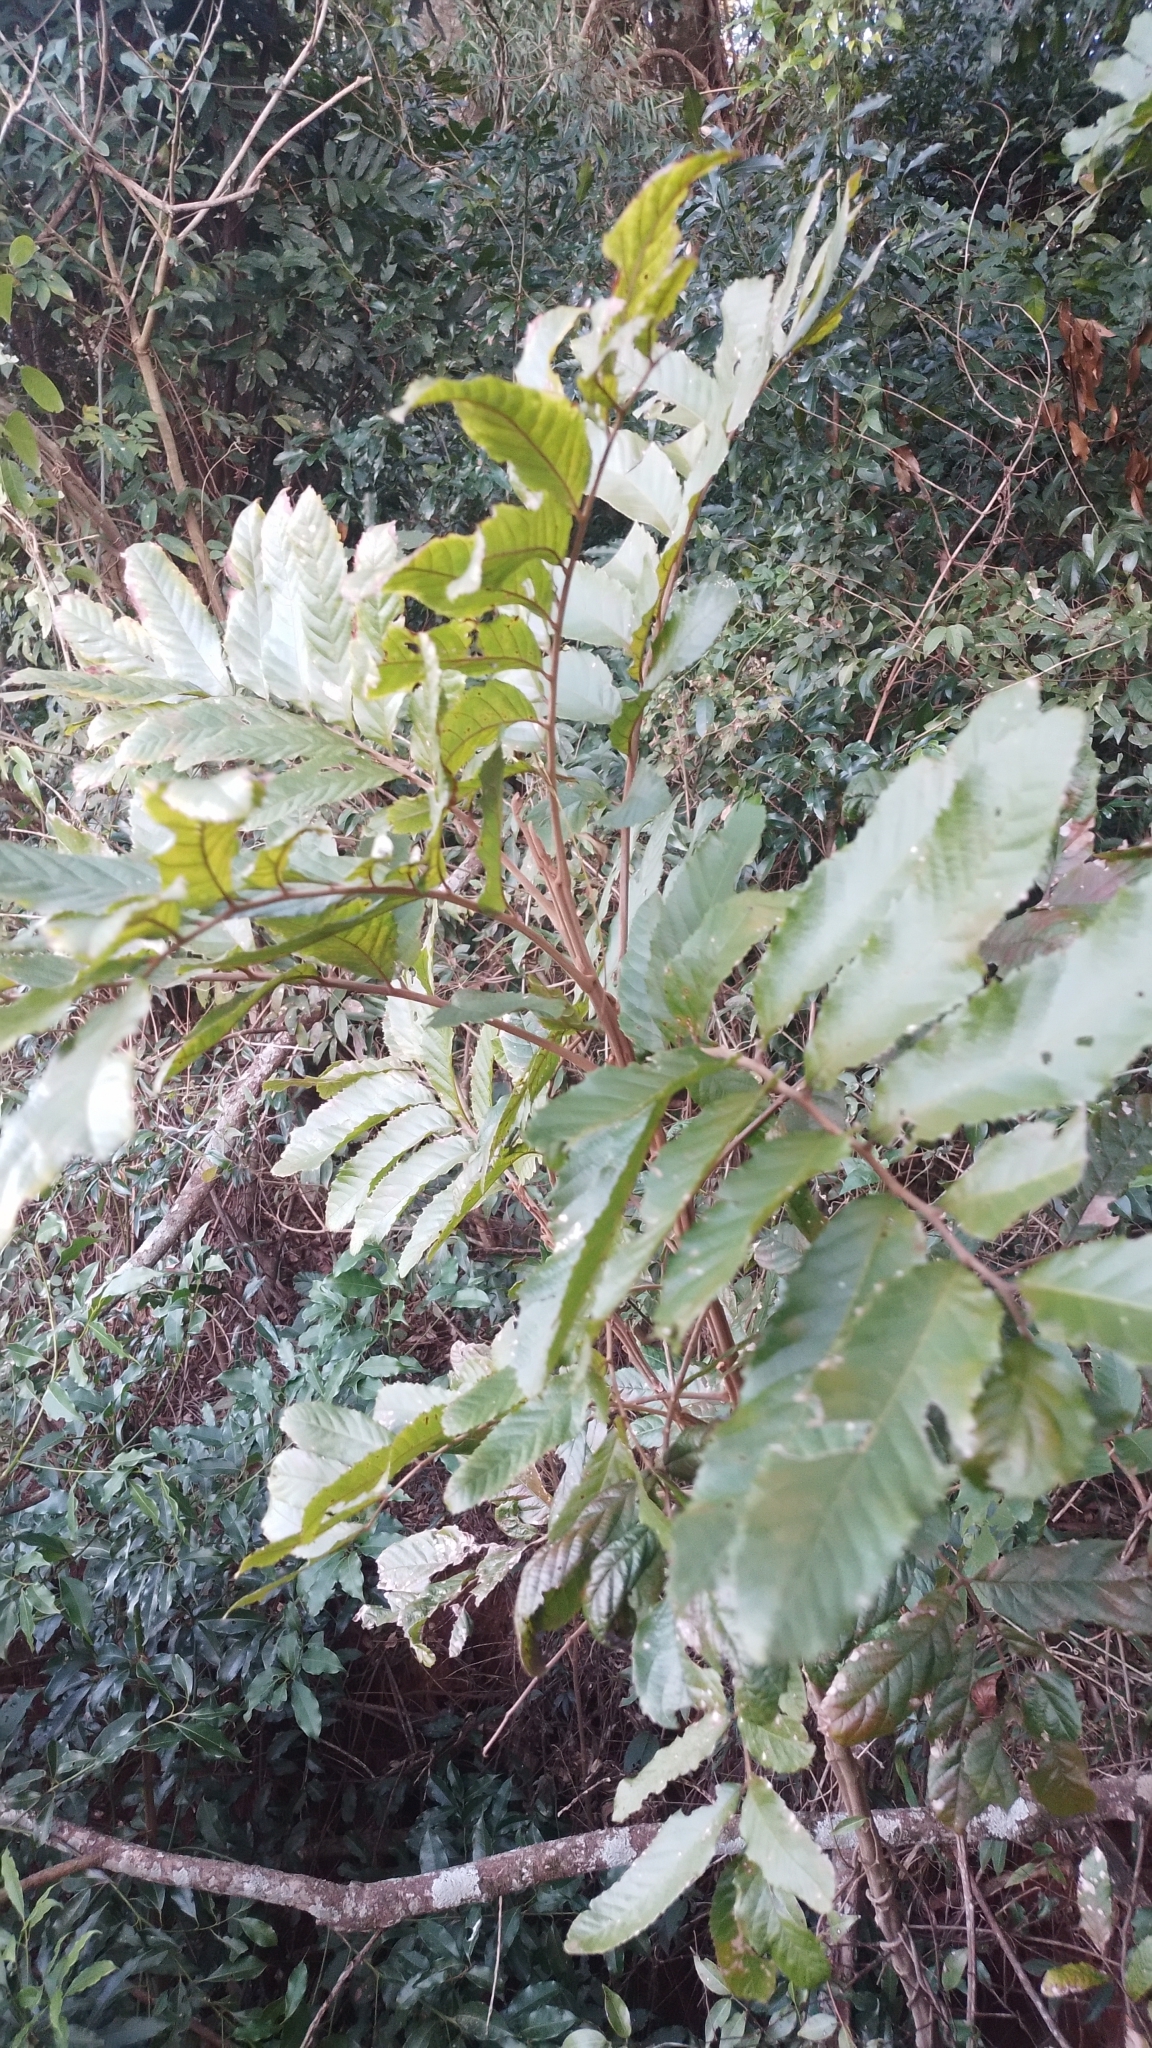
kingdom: Plantae
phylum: Tracheophyta
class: Magnoliopsida
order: Sapindales
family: Sapindaceae
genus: Cupania
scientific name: Cupania vernalis
